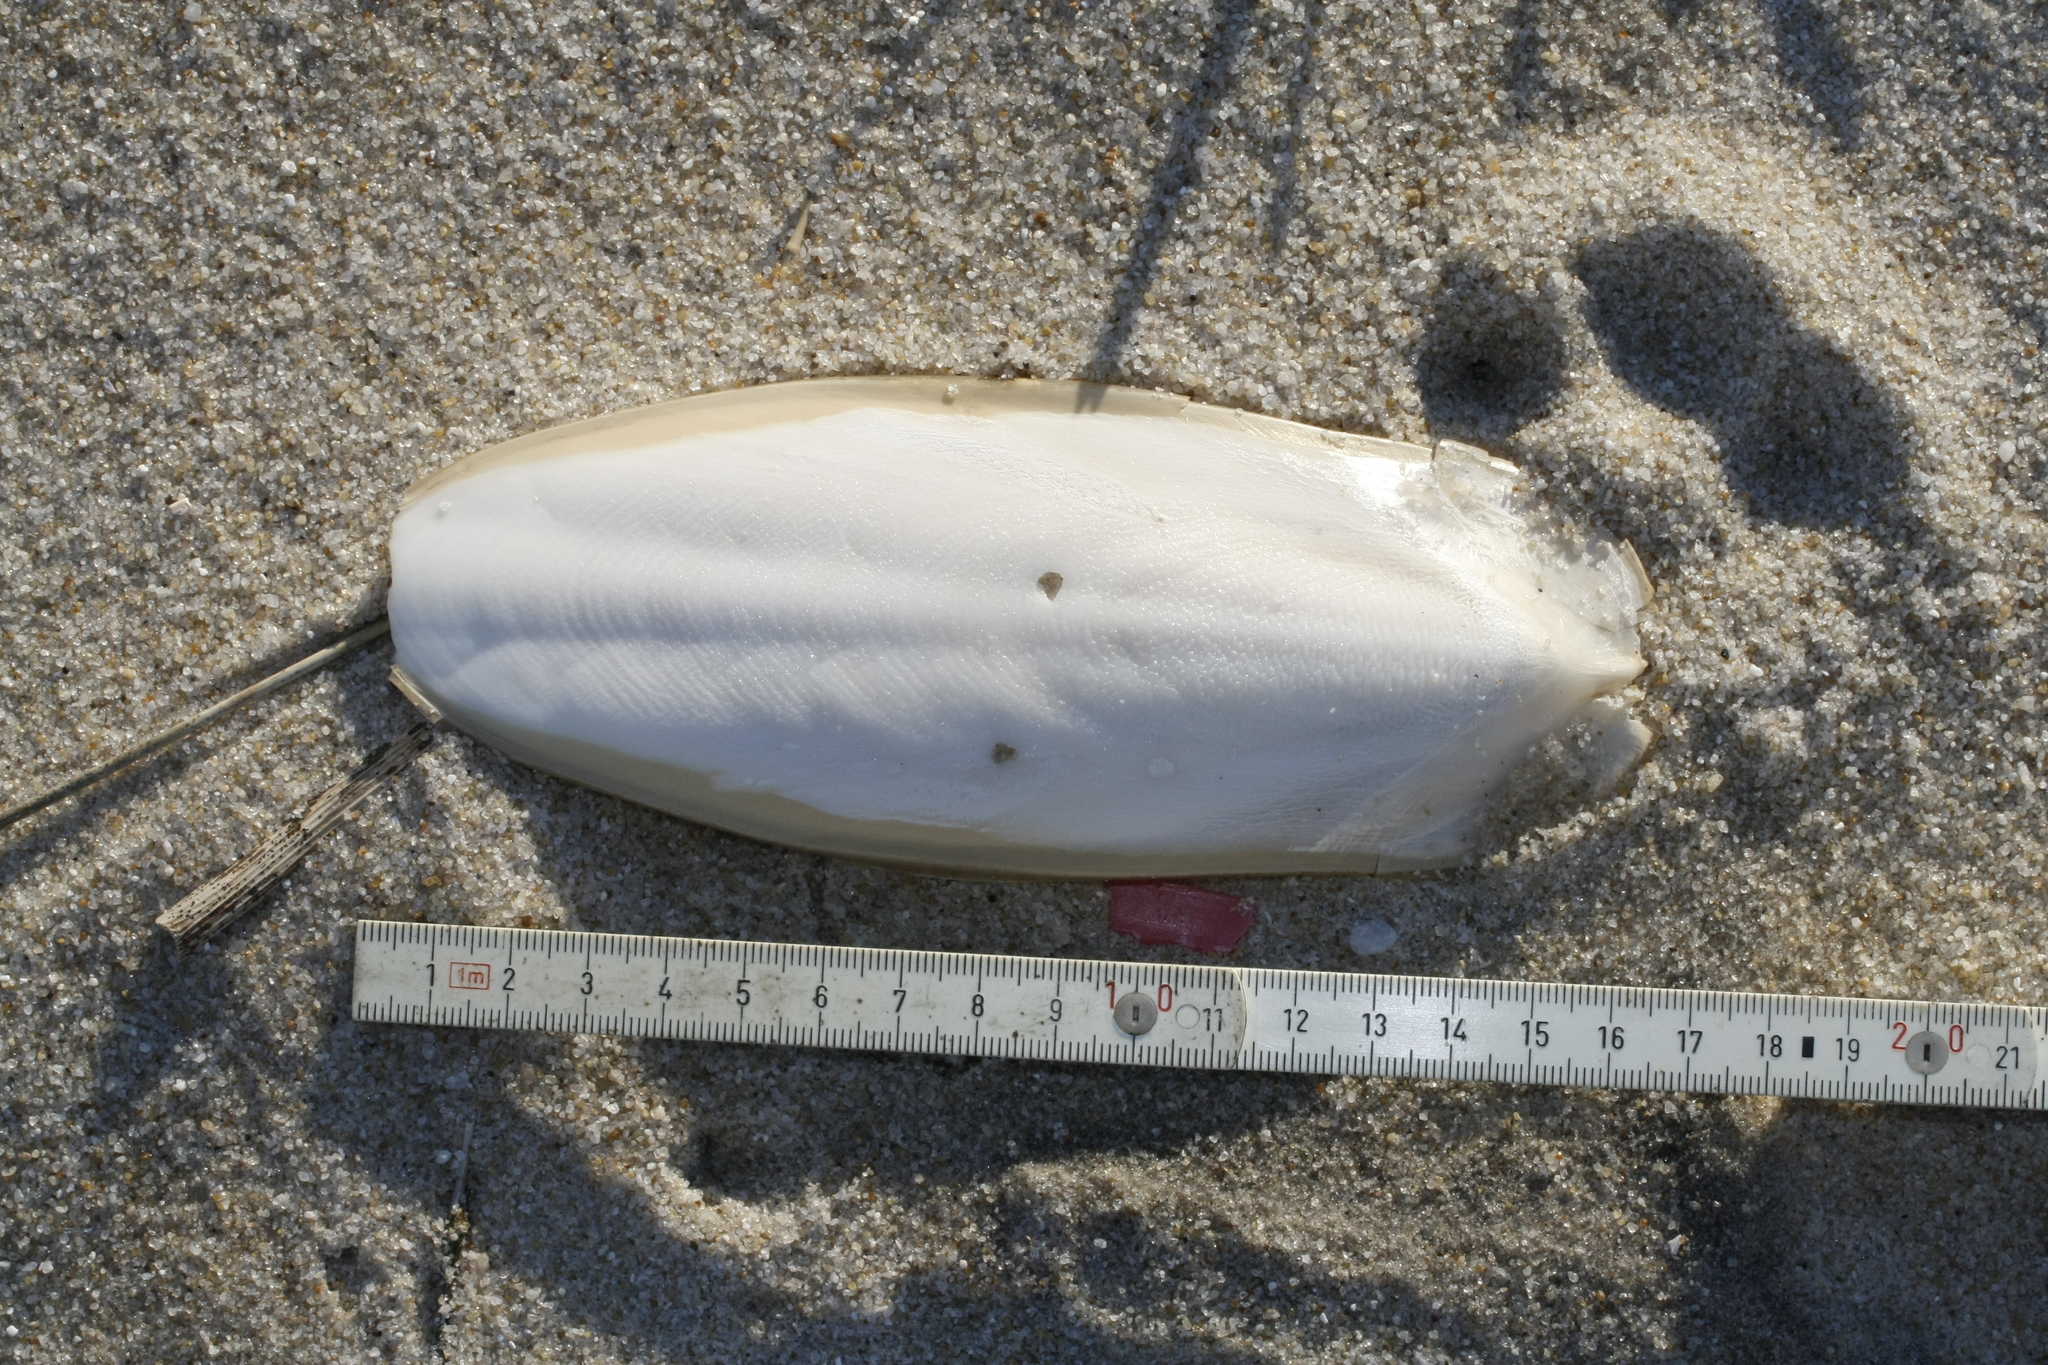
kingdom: Animalia
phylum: Mollusca
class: Cephalopoda
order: Sepiida
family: Sepiidae
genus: Sepia
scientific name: Sepia officinalis
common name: Common cuttlefish
